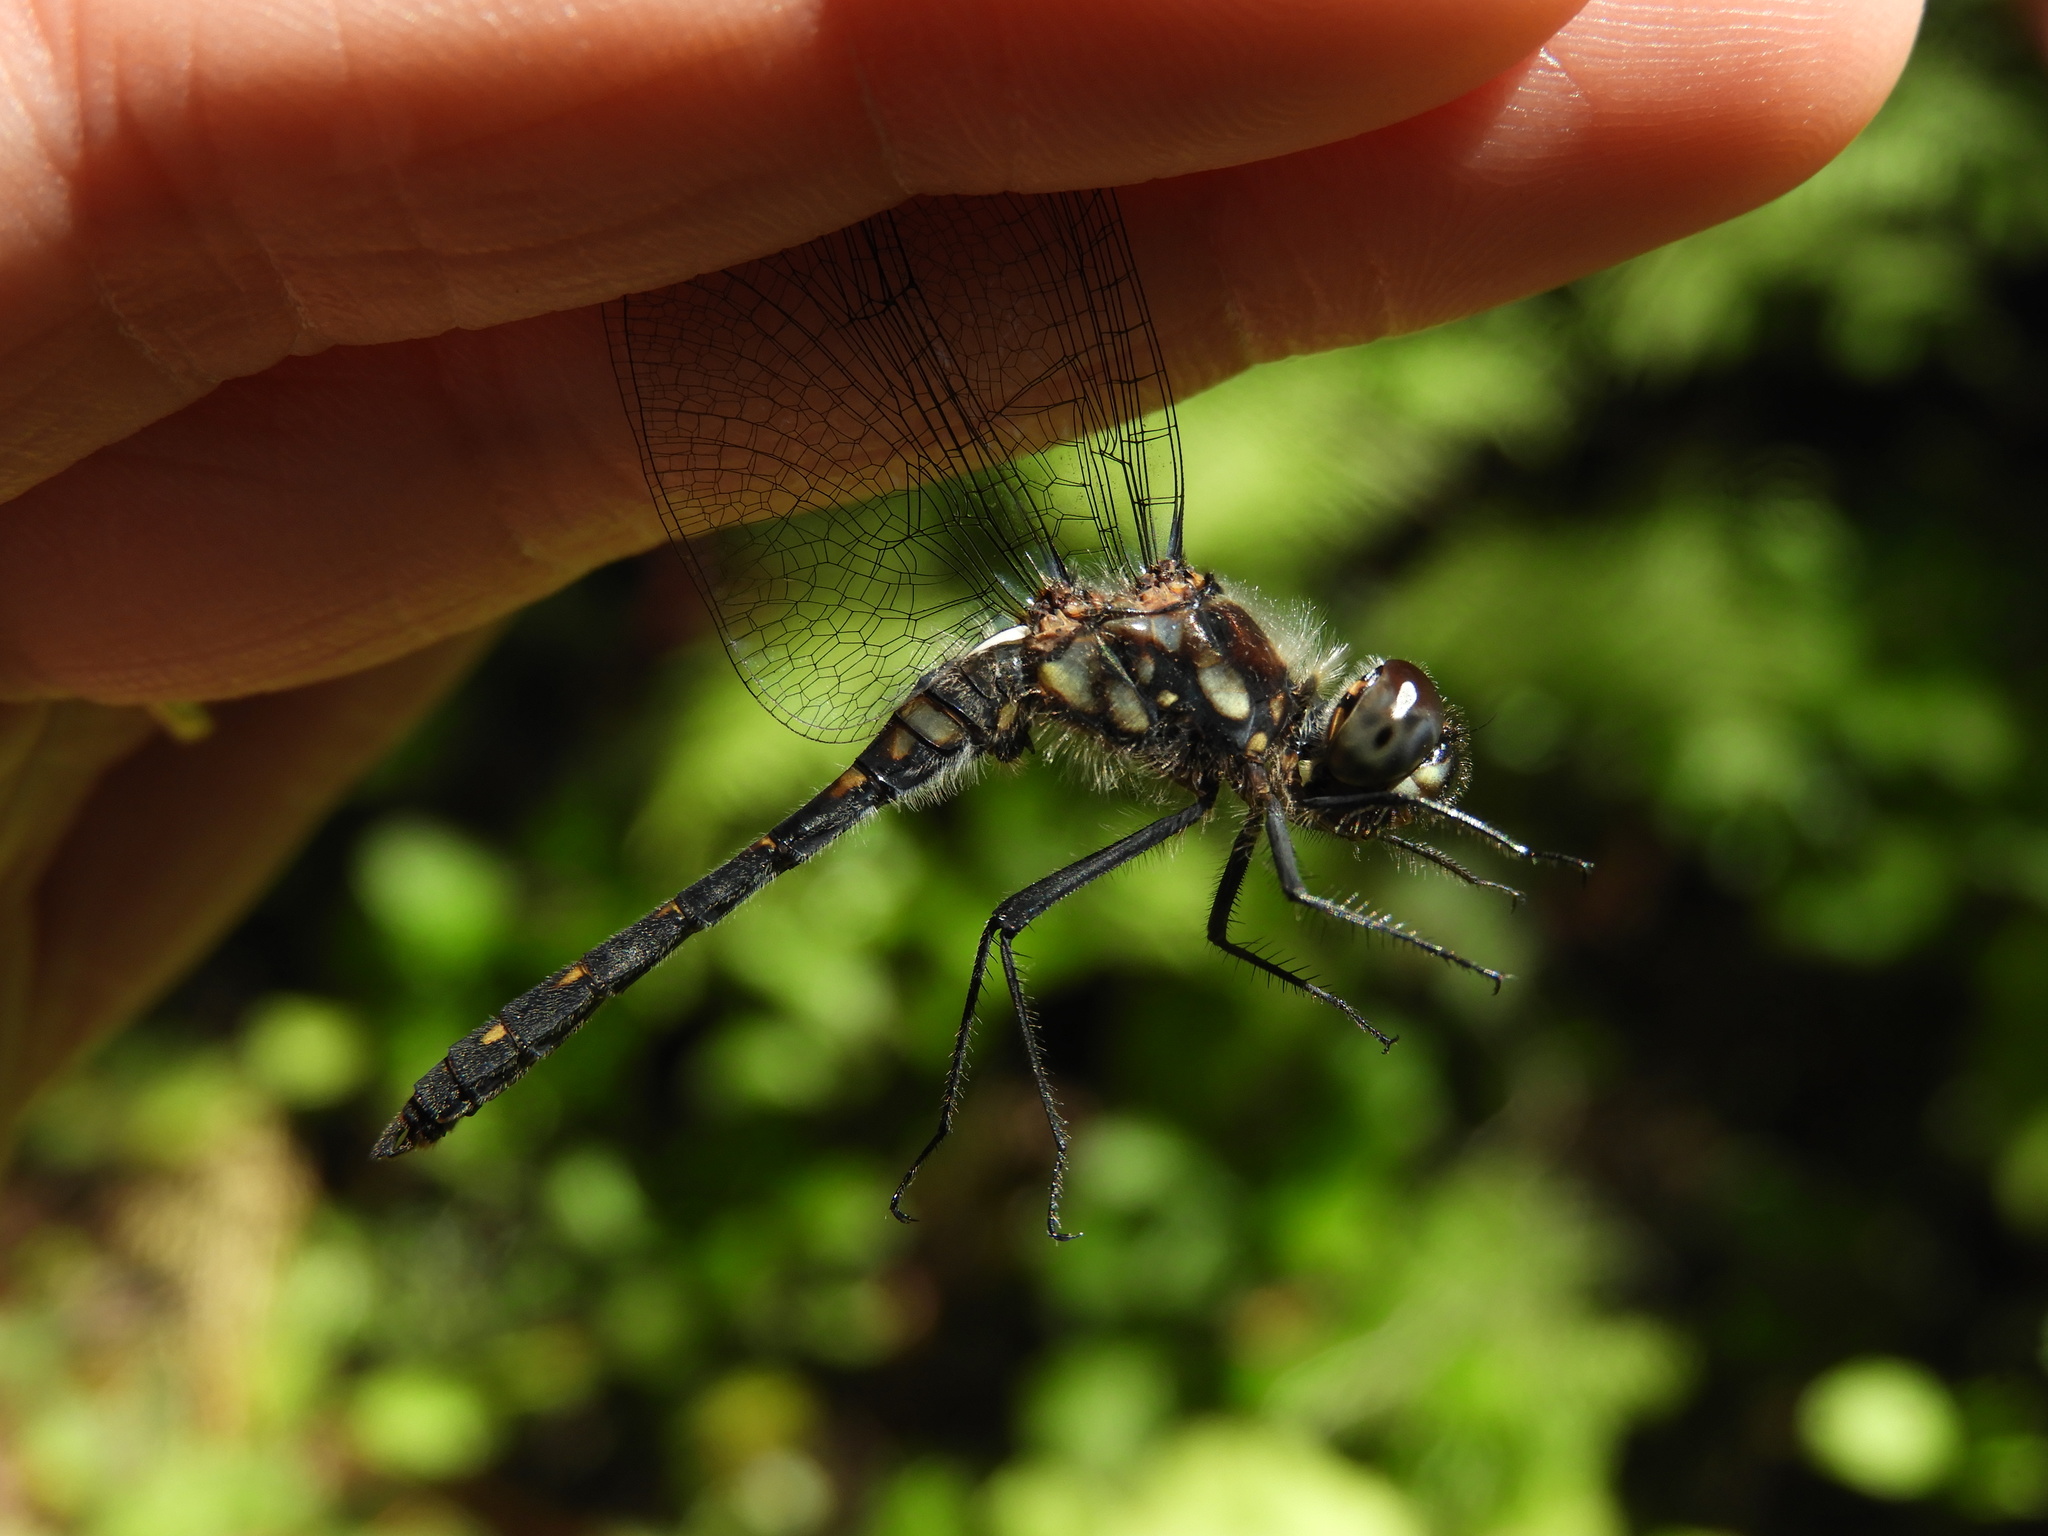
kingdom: Animalia
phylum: Arthropoda
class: Insecta
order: Odonata
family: Libellulidae
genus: Sympetrum
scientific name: Sympetrum danae
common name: Black darter
